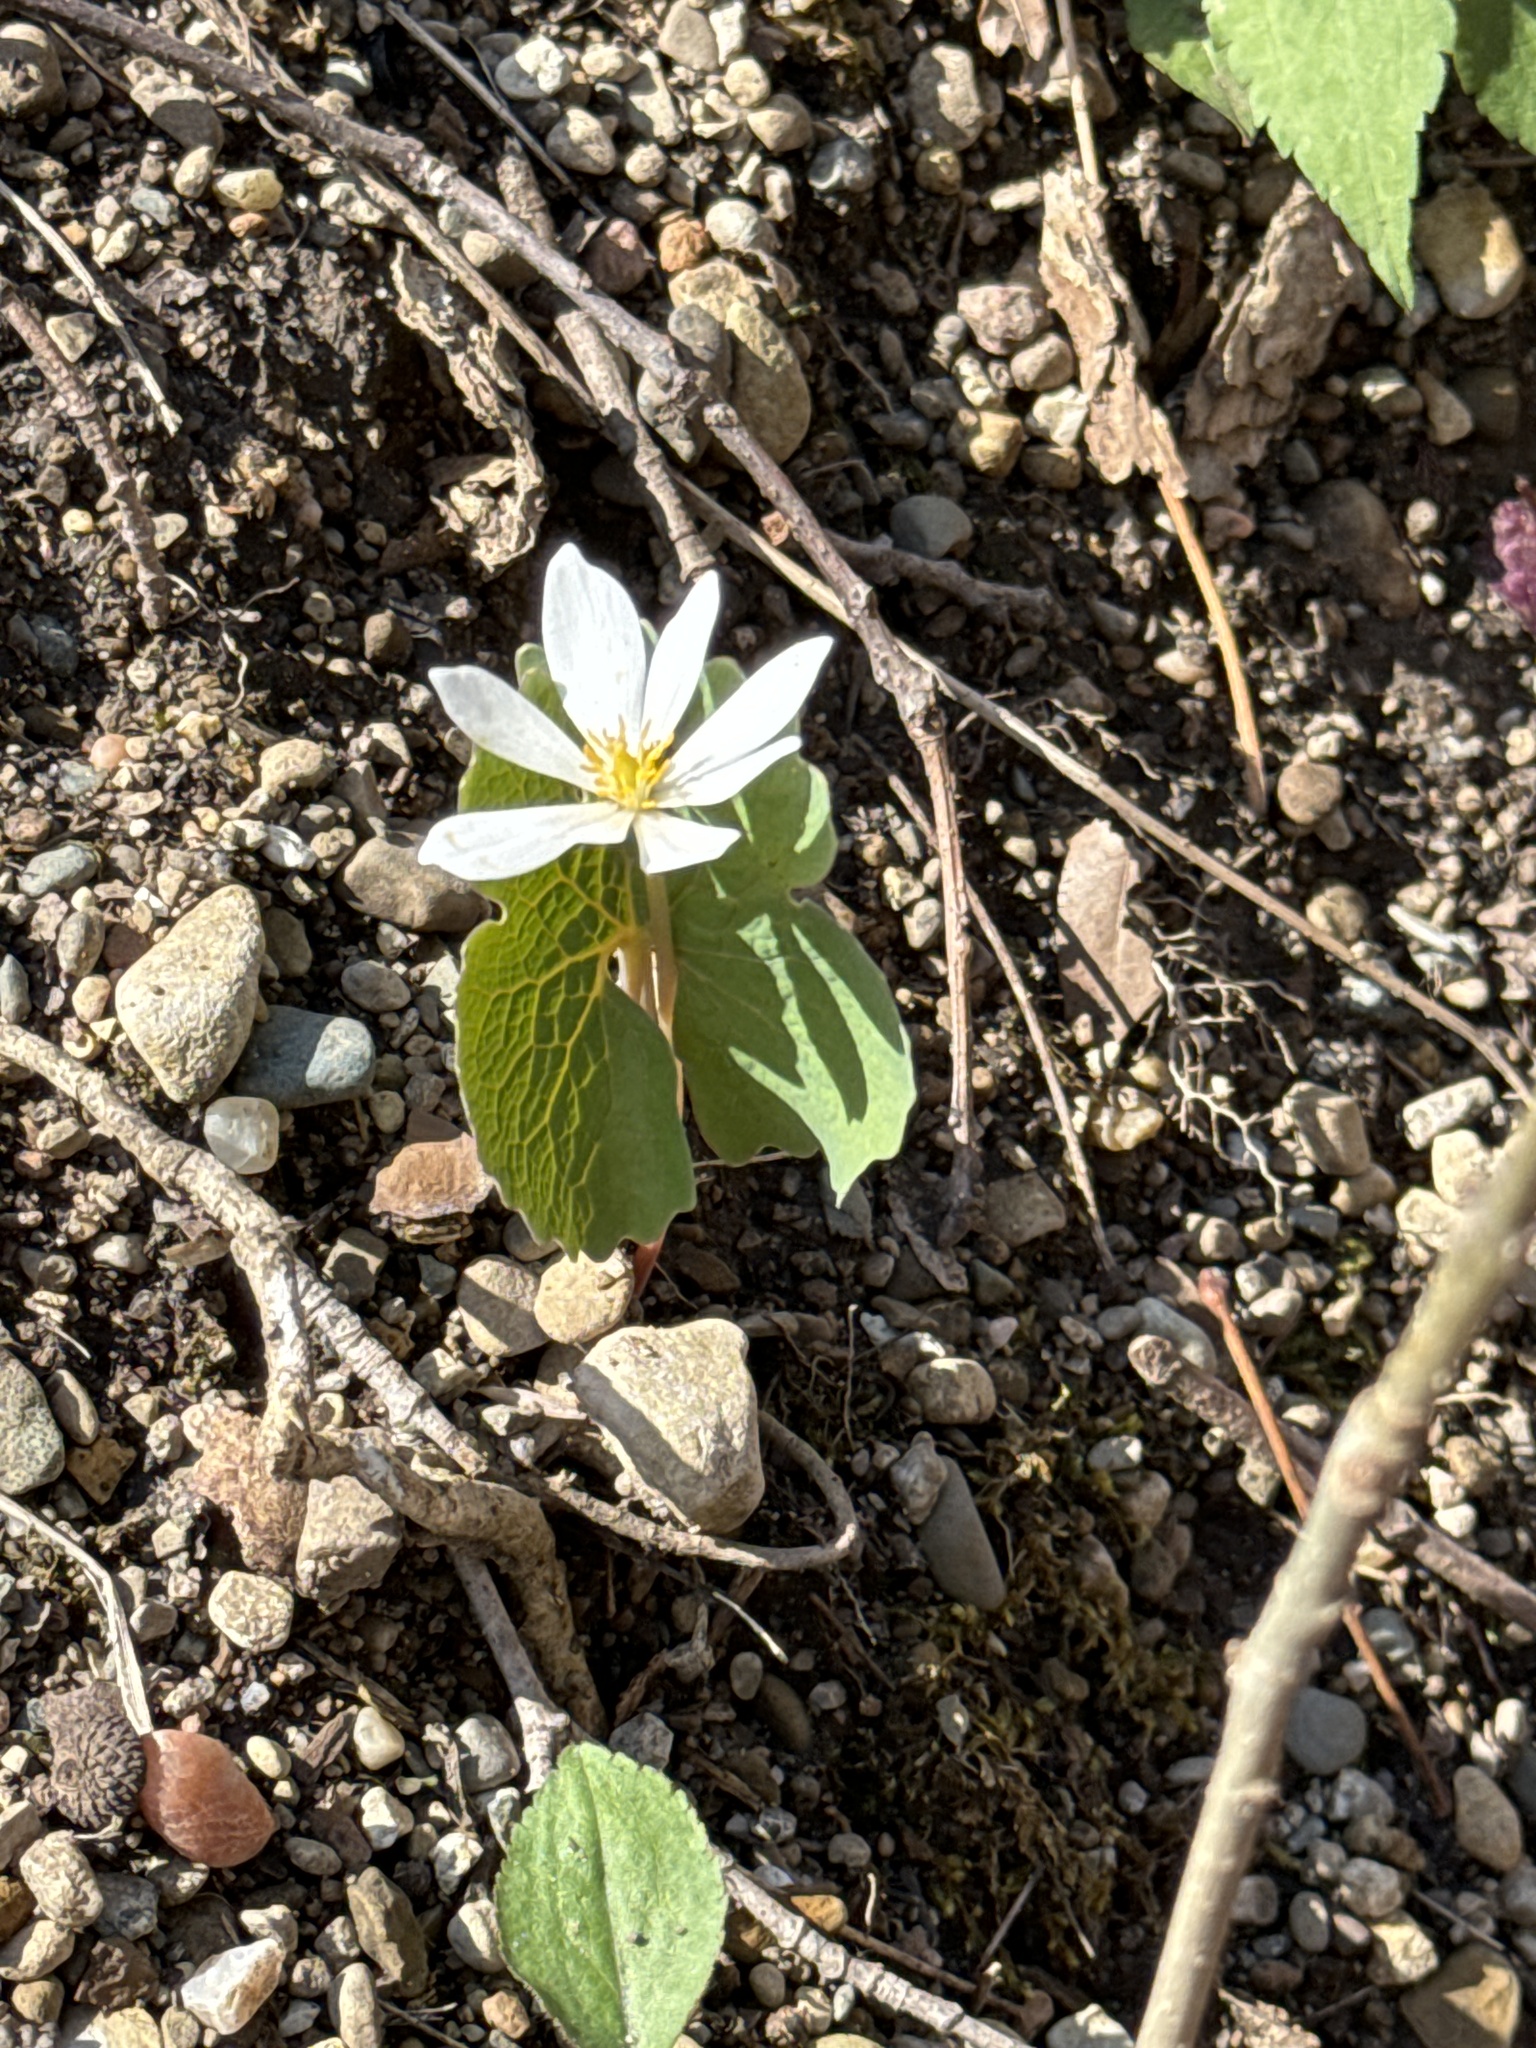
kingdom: Plantae
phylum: Tracheophyta
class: Magnoliopsida
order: Ranunculales
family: Papaveraceae
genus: Sanguinaria
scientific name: Sanguinaria canadensis
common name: Bloodroot
